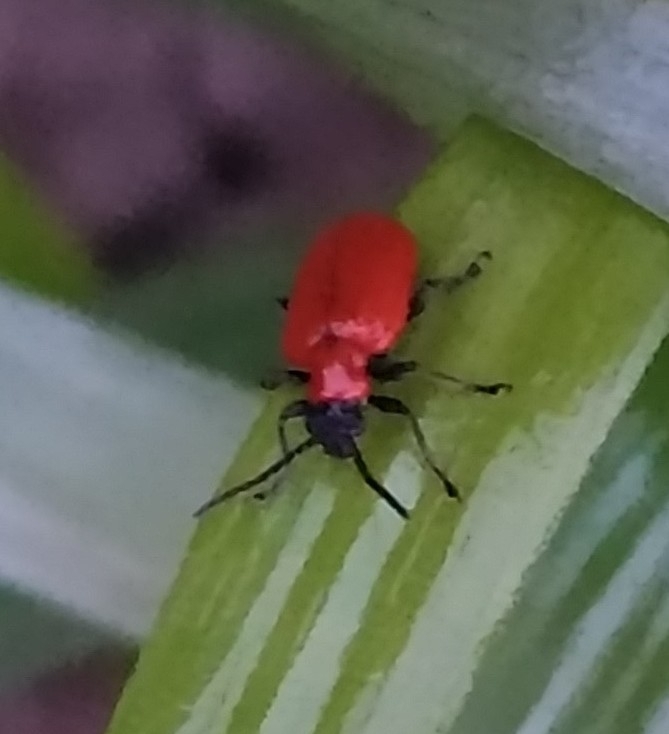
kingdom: Animalia
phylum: Arthropoda
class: Insecta
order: Coleoptera
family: Chrysomelidae
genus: Lilioceris
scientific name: Lilioceris lilii
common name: Lily beetle
